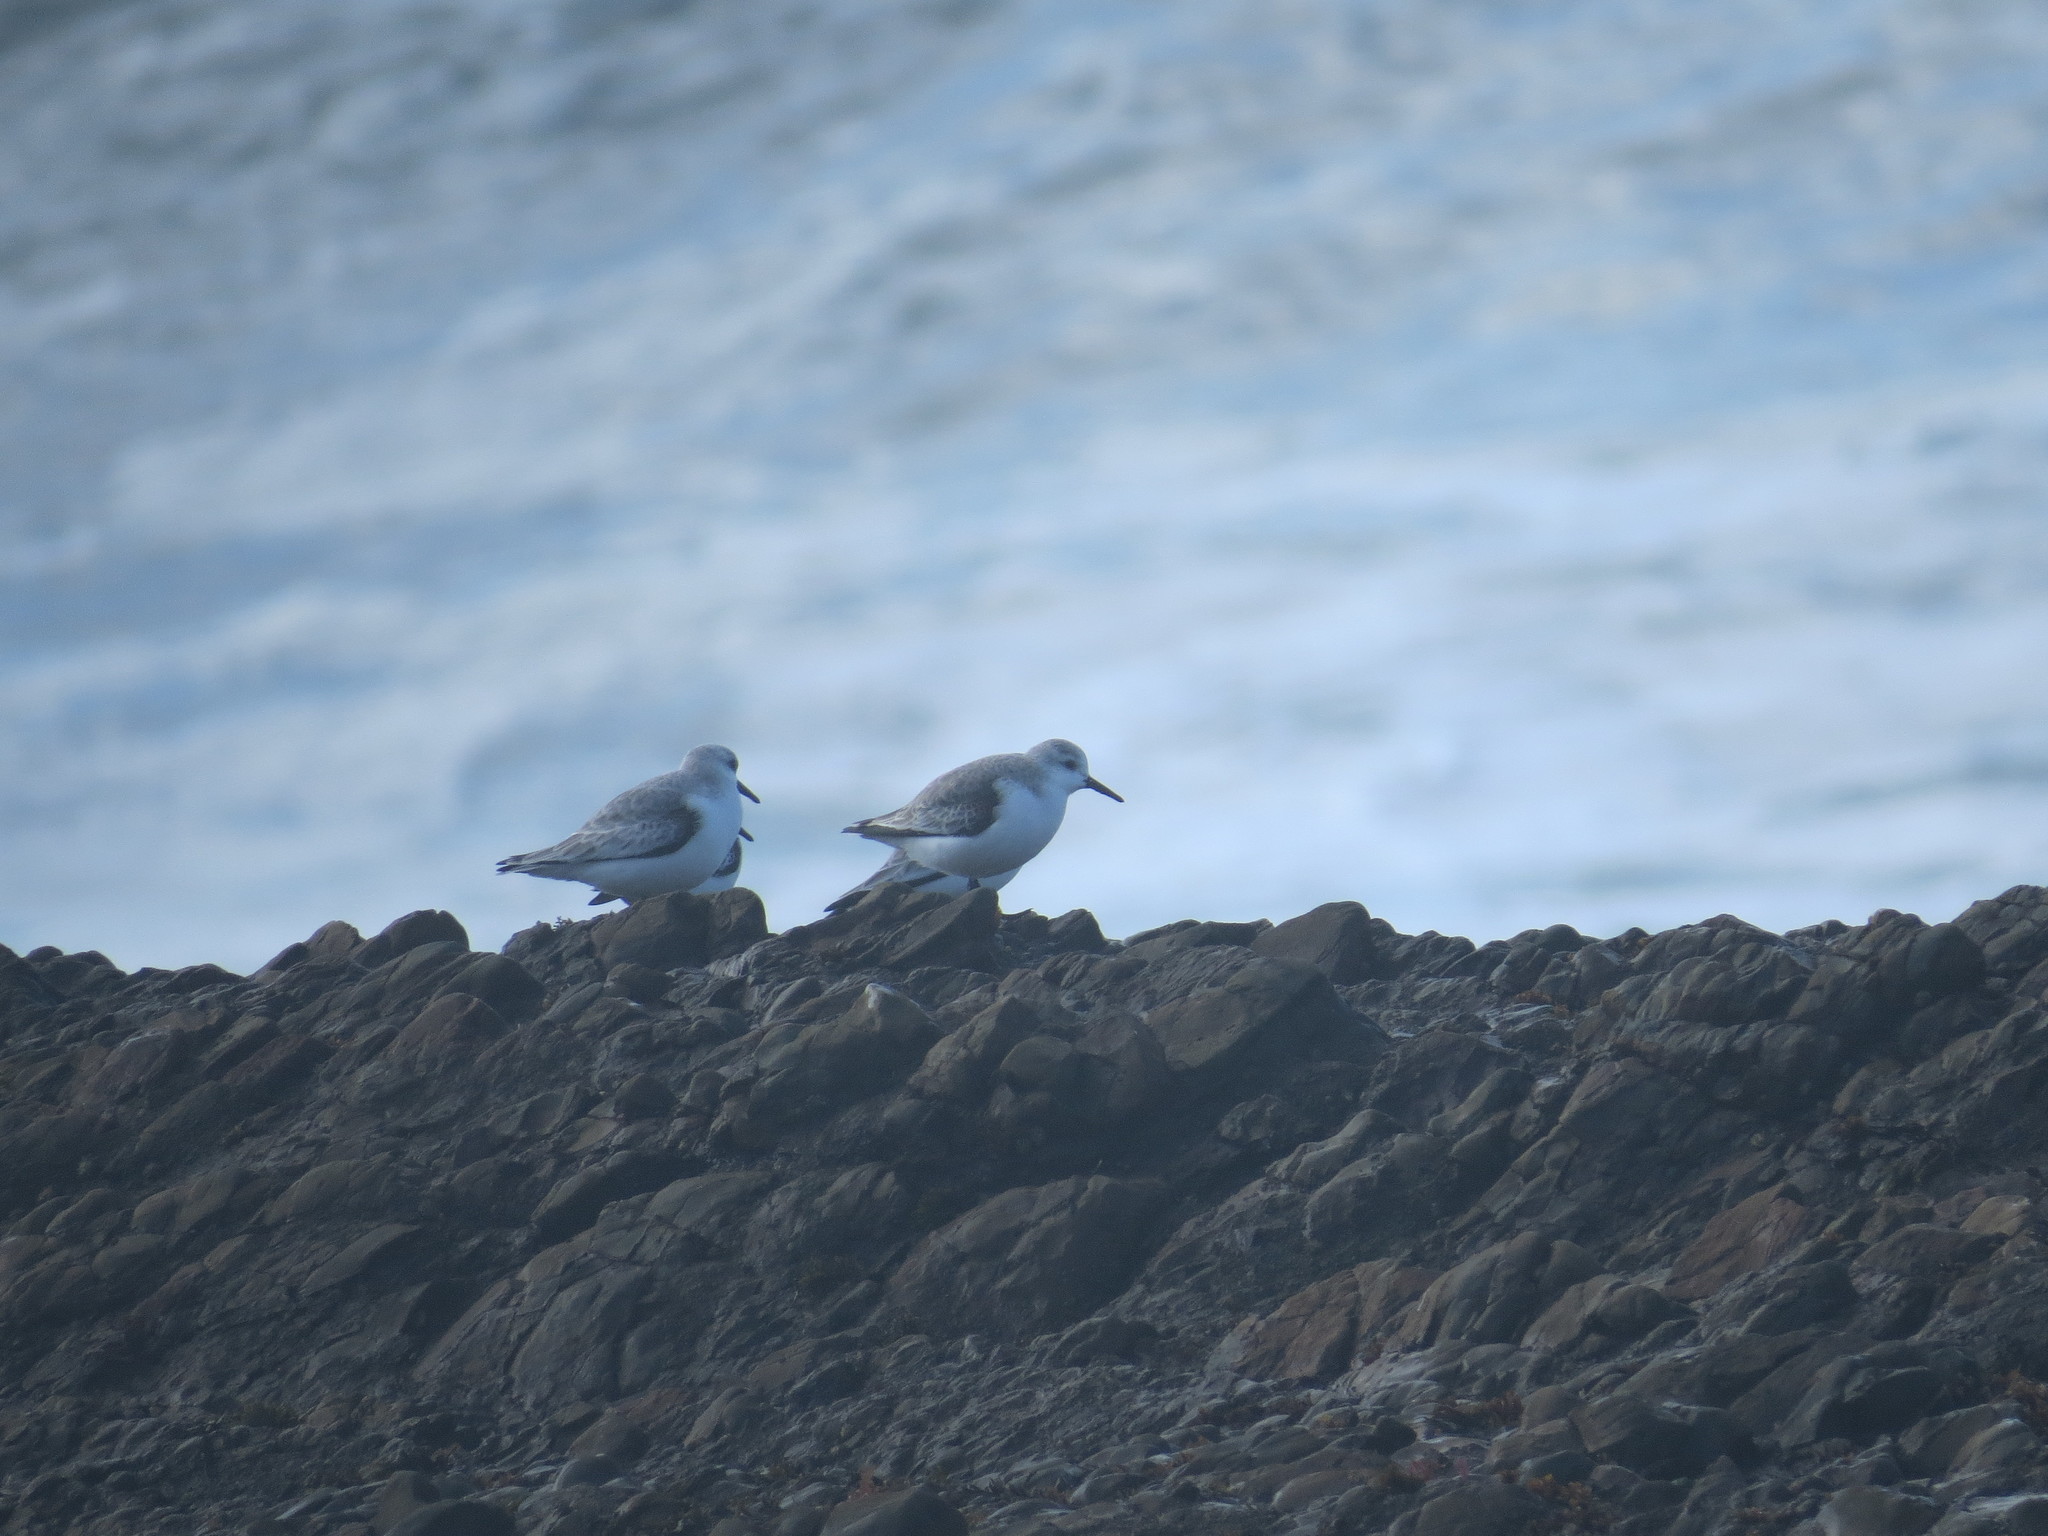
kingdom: Animalia
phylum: Chordata
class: Aves
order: Charadriiformes
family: Scolopacidae
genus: Calidris
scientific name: Calidris alba
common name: Sanderling
